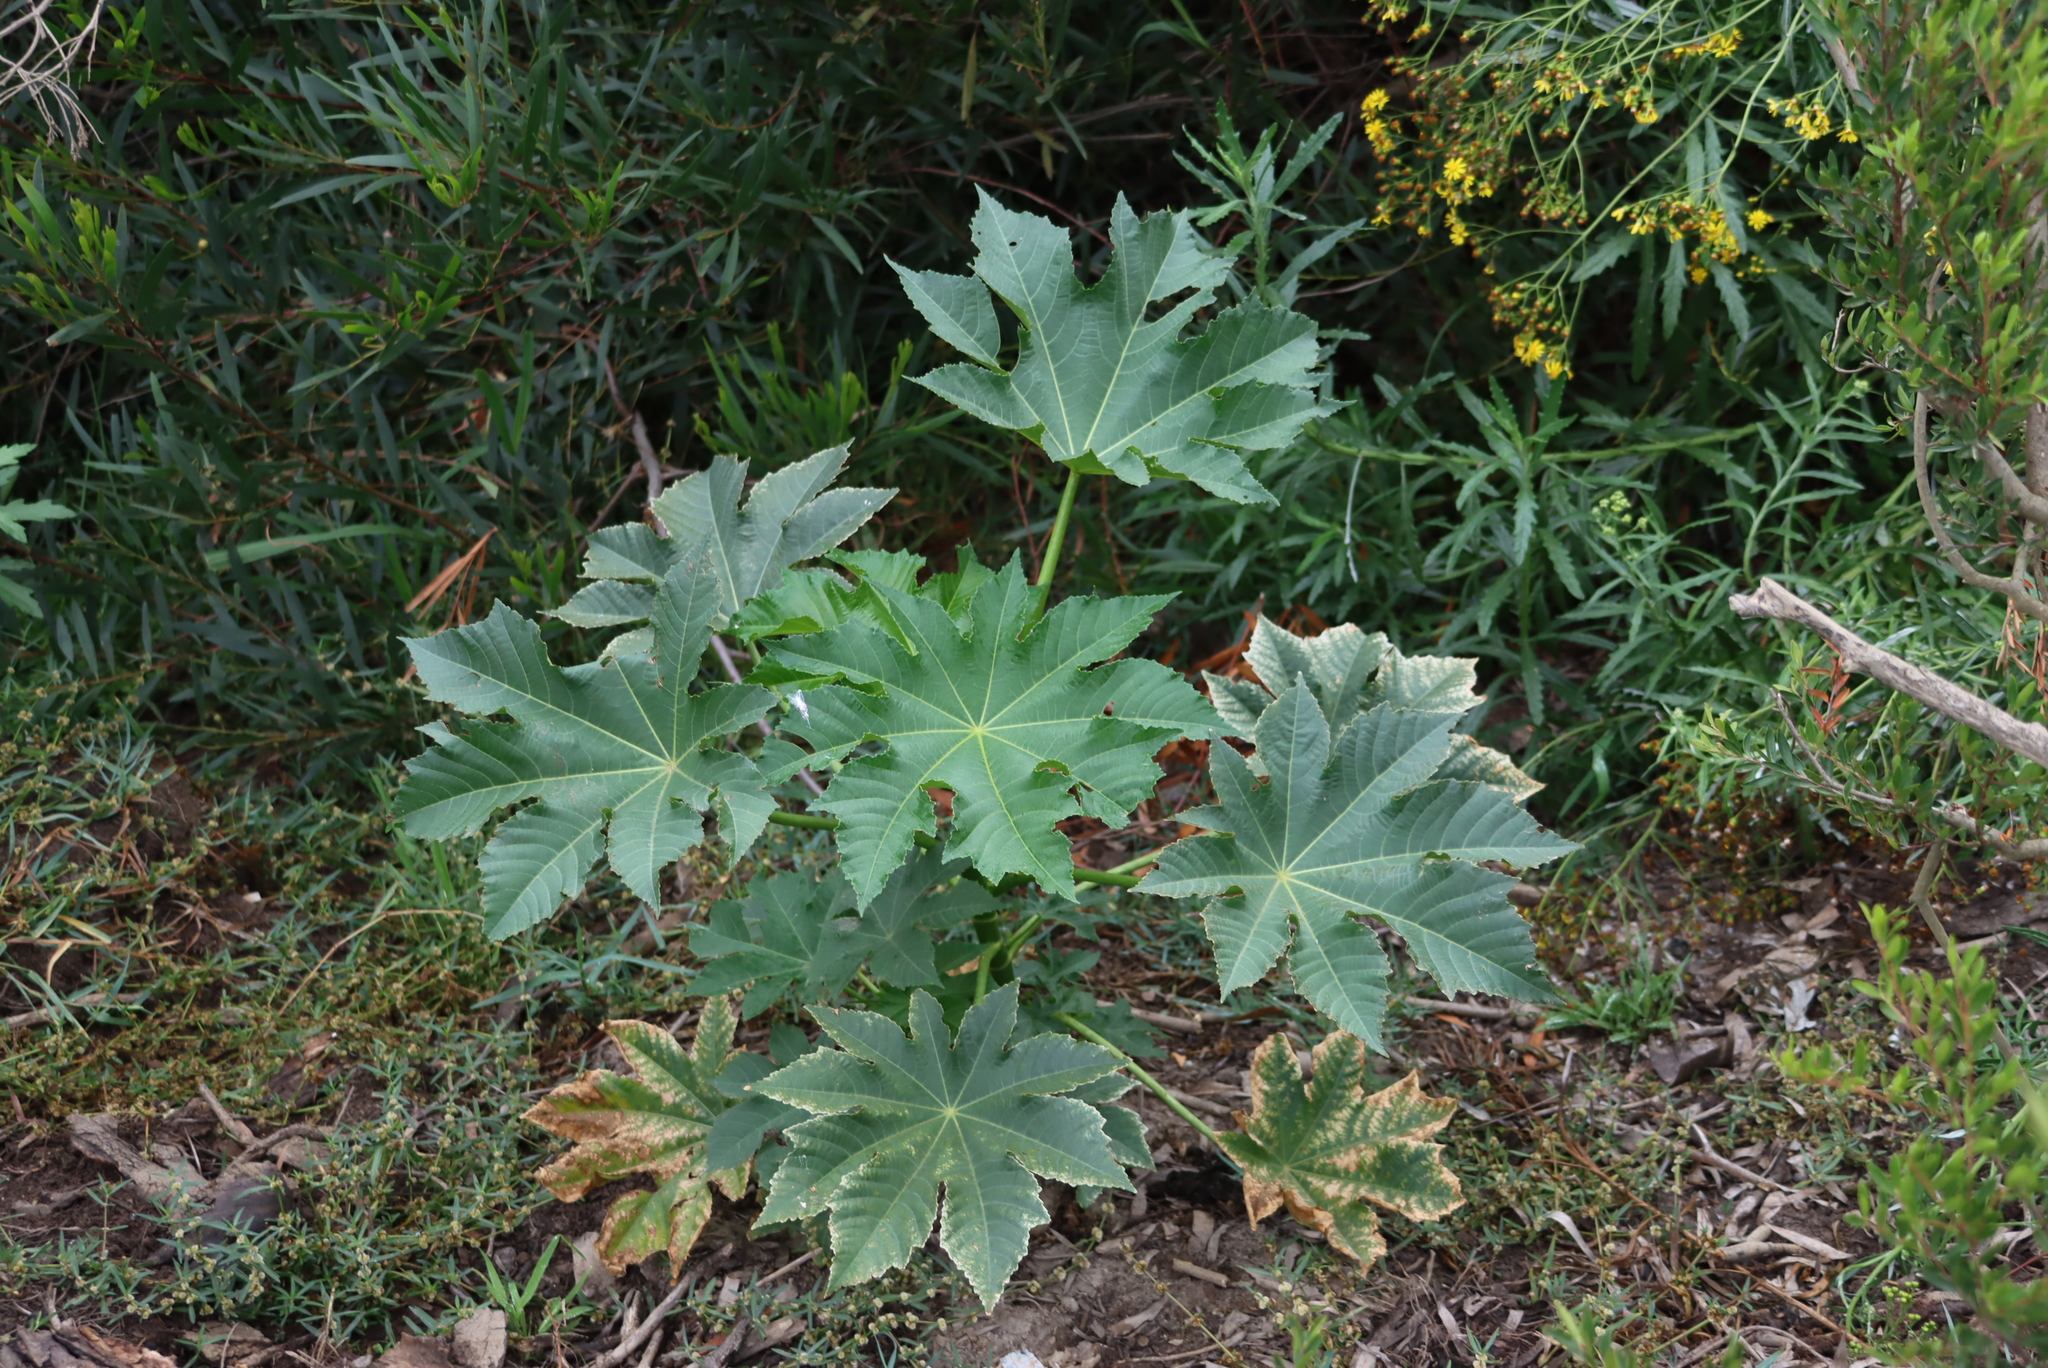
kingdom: Plantae
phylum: Tracheophyta
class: Magnoliopsida
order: Malpighiales
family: Euphorbiaceae
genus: Ricinus
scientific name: Ricinus communis
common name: Castor-oil-plant
